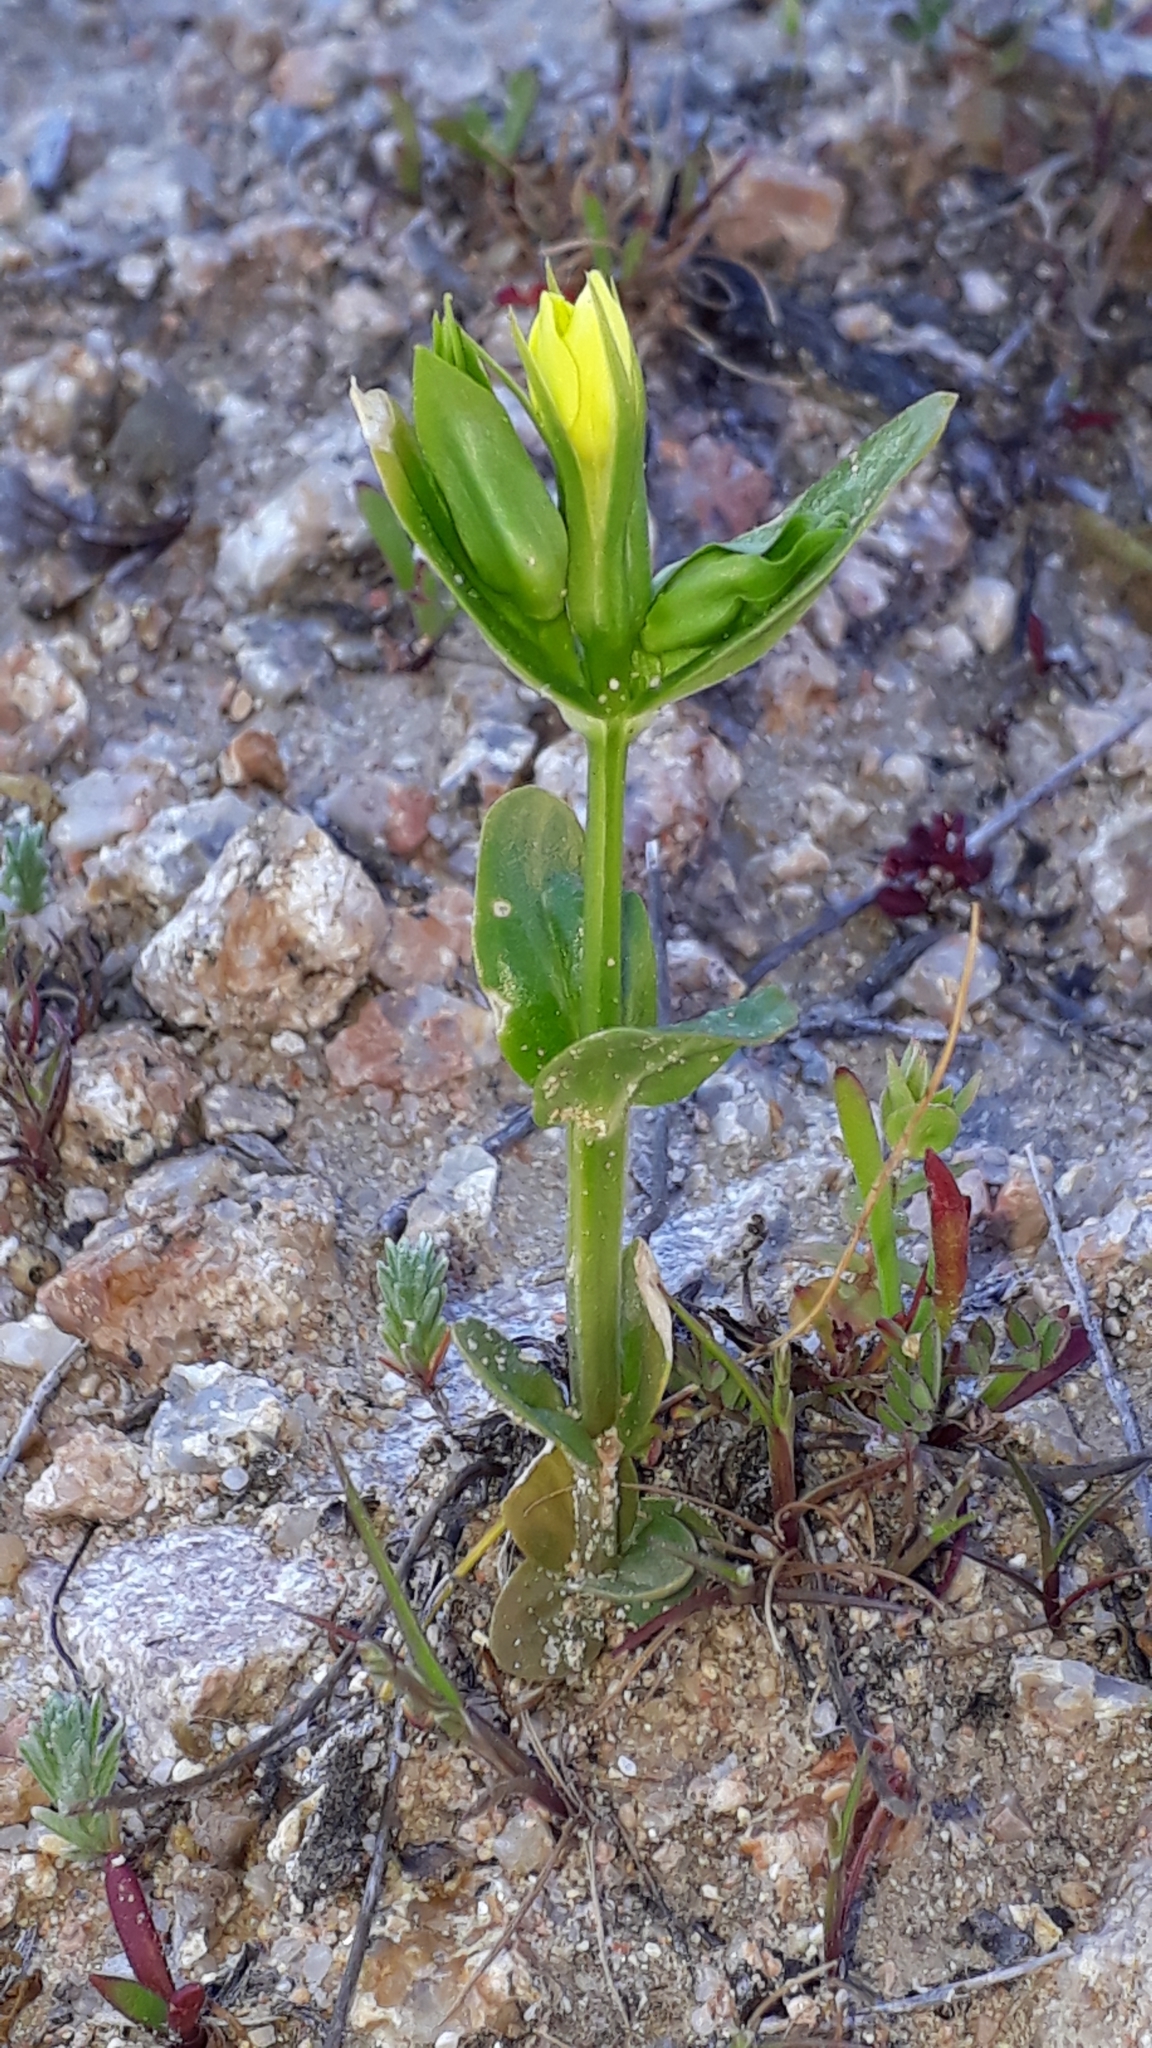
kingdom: Plantae
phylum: Tracheophyta
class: Magnoliopsida
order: Gentianales
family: Gentianaceae
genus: Centaurium
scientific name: Centaurium maritimum
